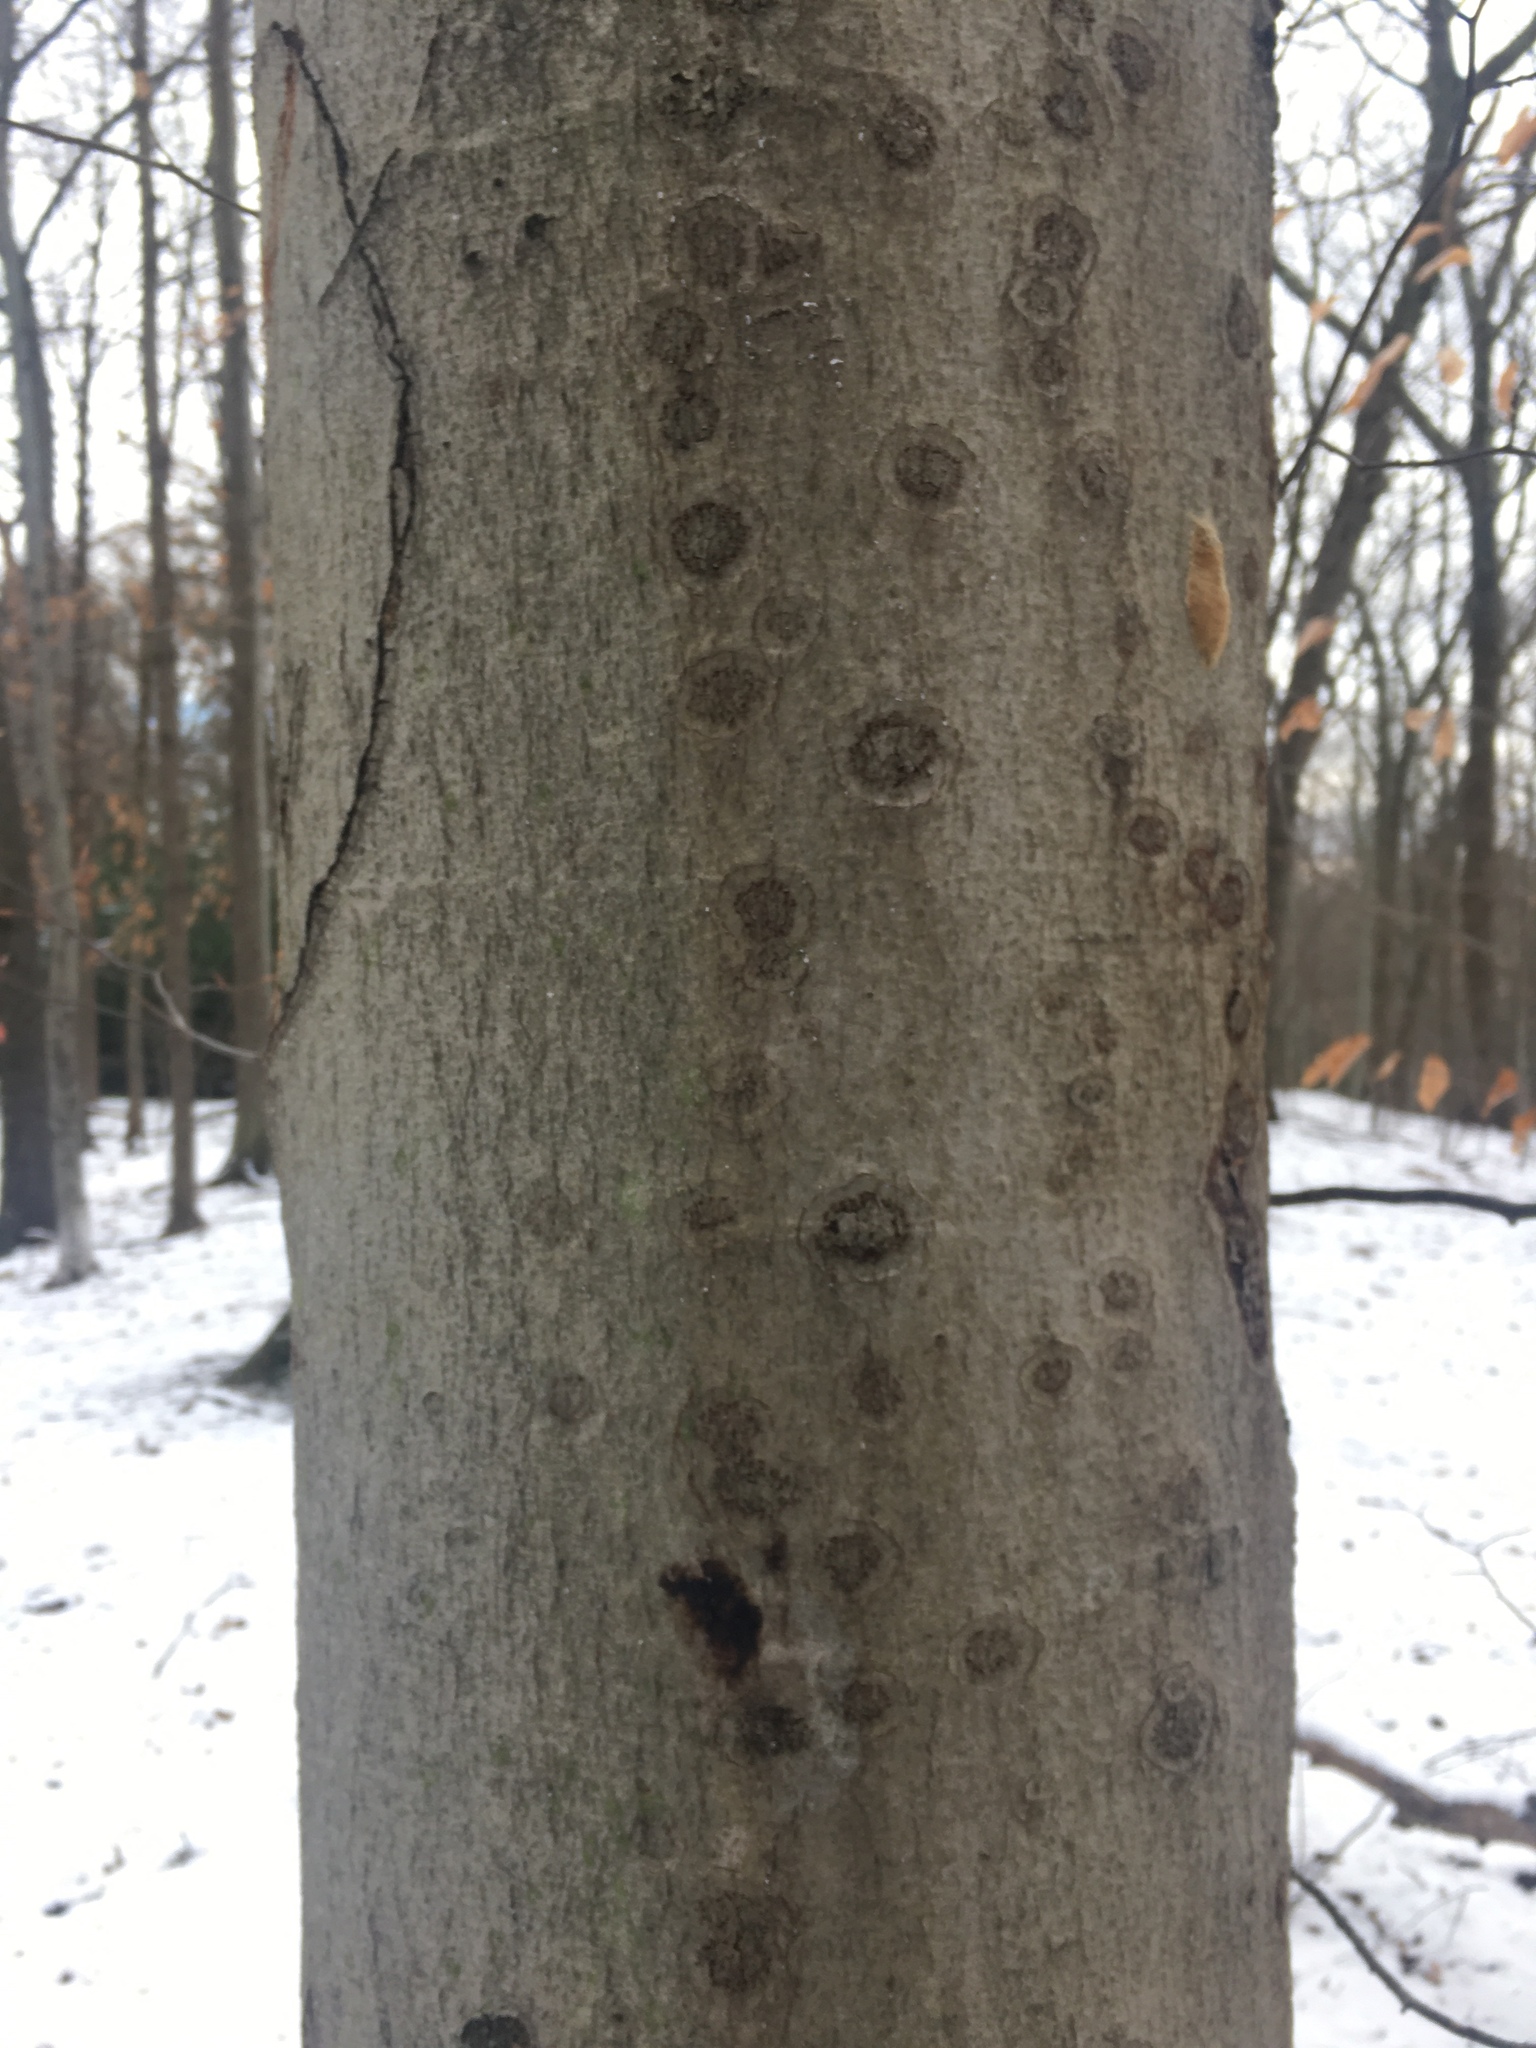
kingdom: Animalia
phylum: Arthropoda
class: Insecta
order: Hemiptera
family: Eriococcidae
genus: Cryptococcus
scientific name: Cryptococcus fagisuga
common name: Beech scale
